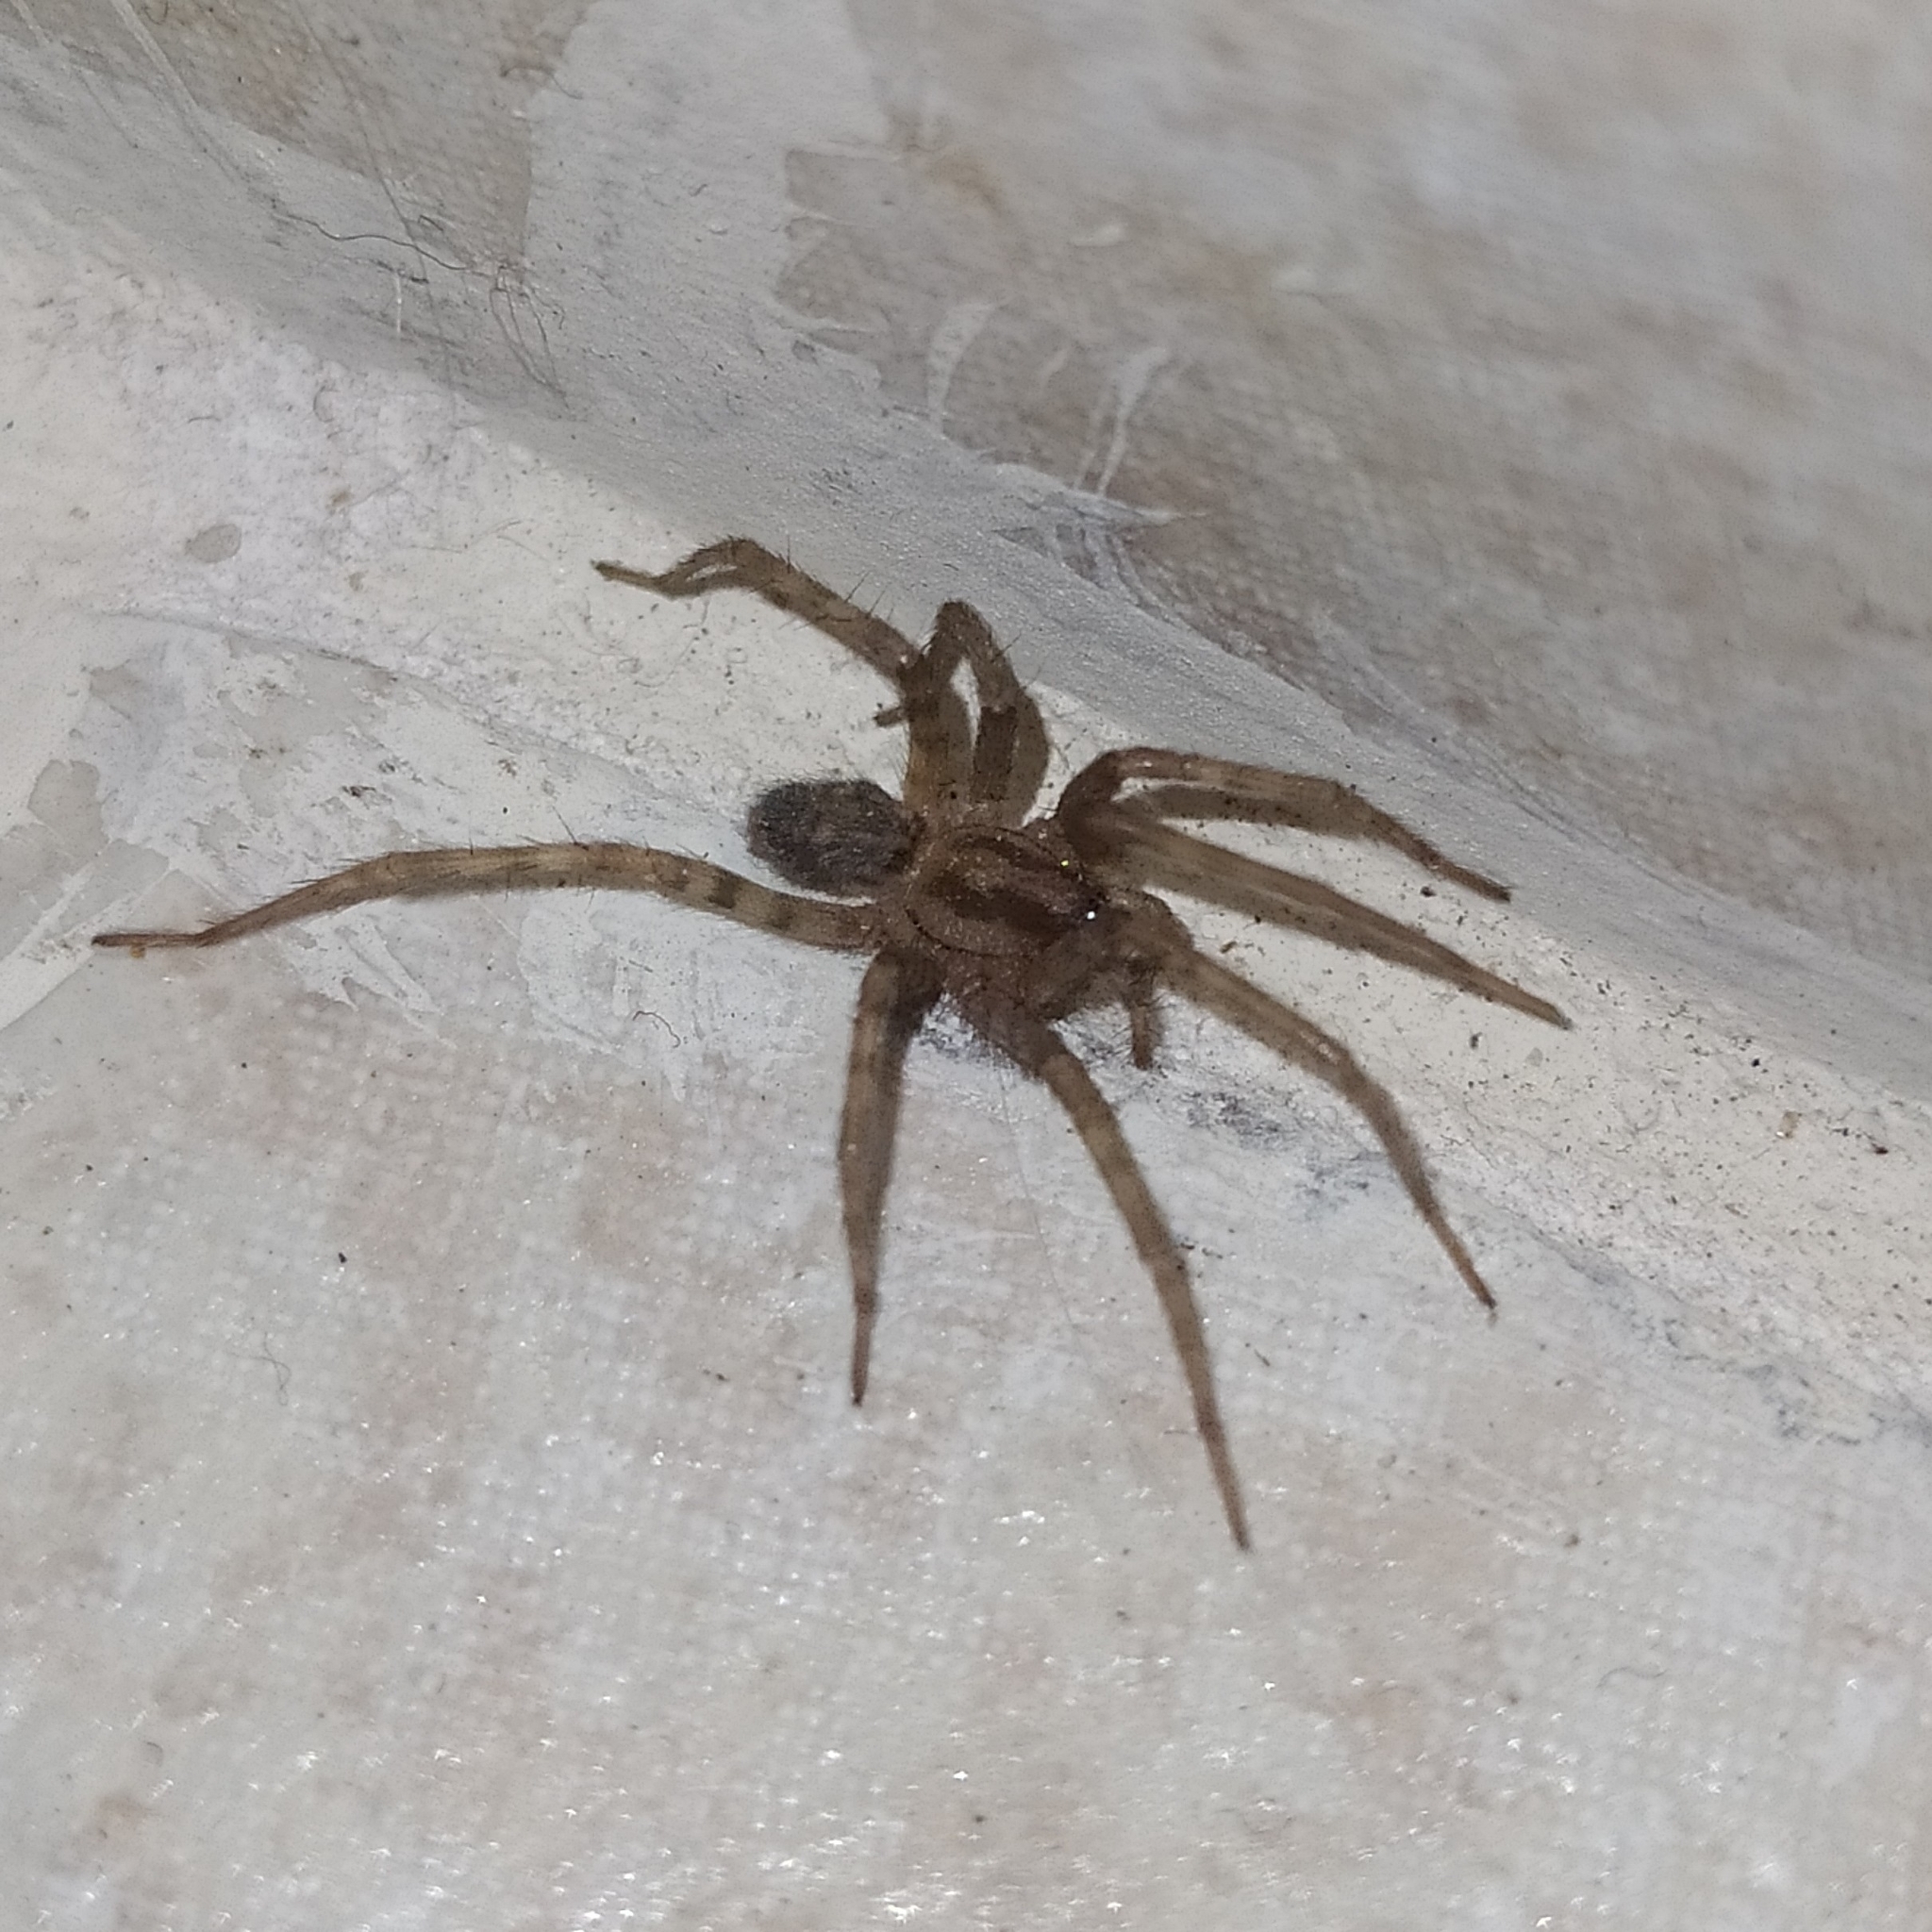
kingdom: Animalia
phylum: Arthropoda
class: Arachnida
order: Araneae
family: Agelenidae
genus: Tegenaria
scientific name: Tegenaria domestica
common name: Barn funnel weaver
